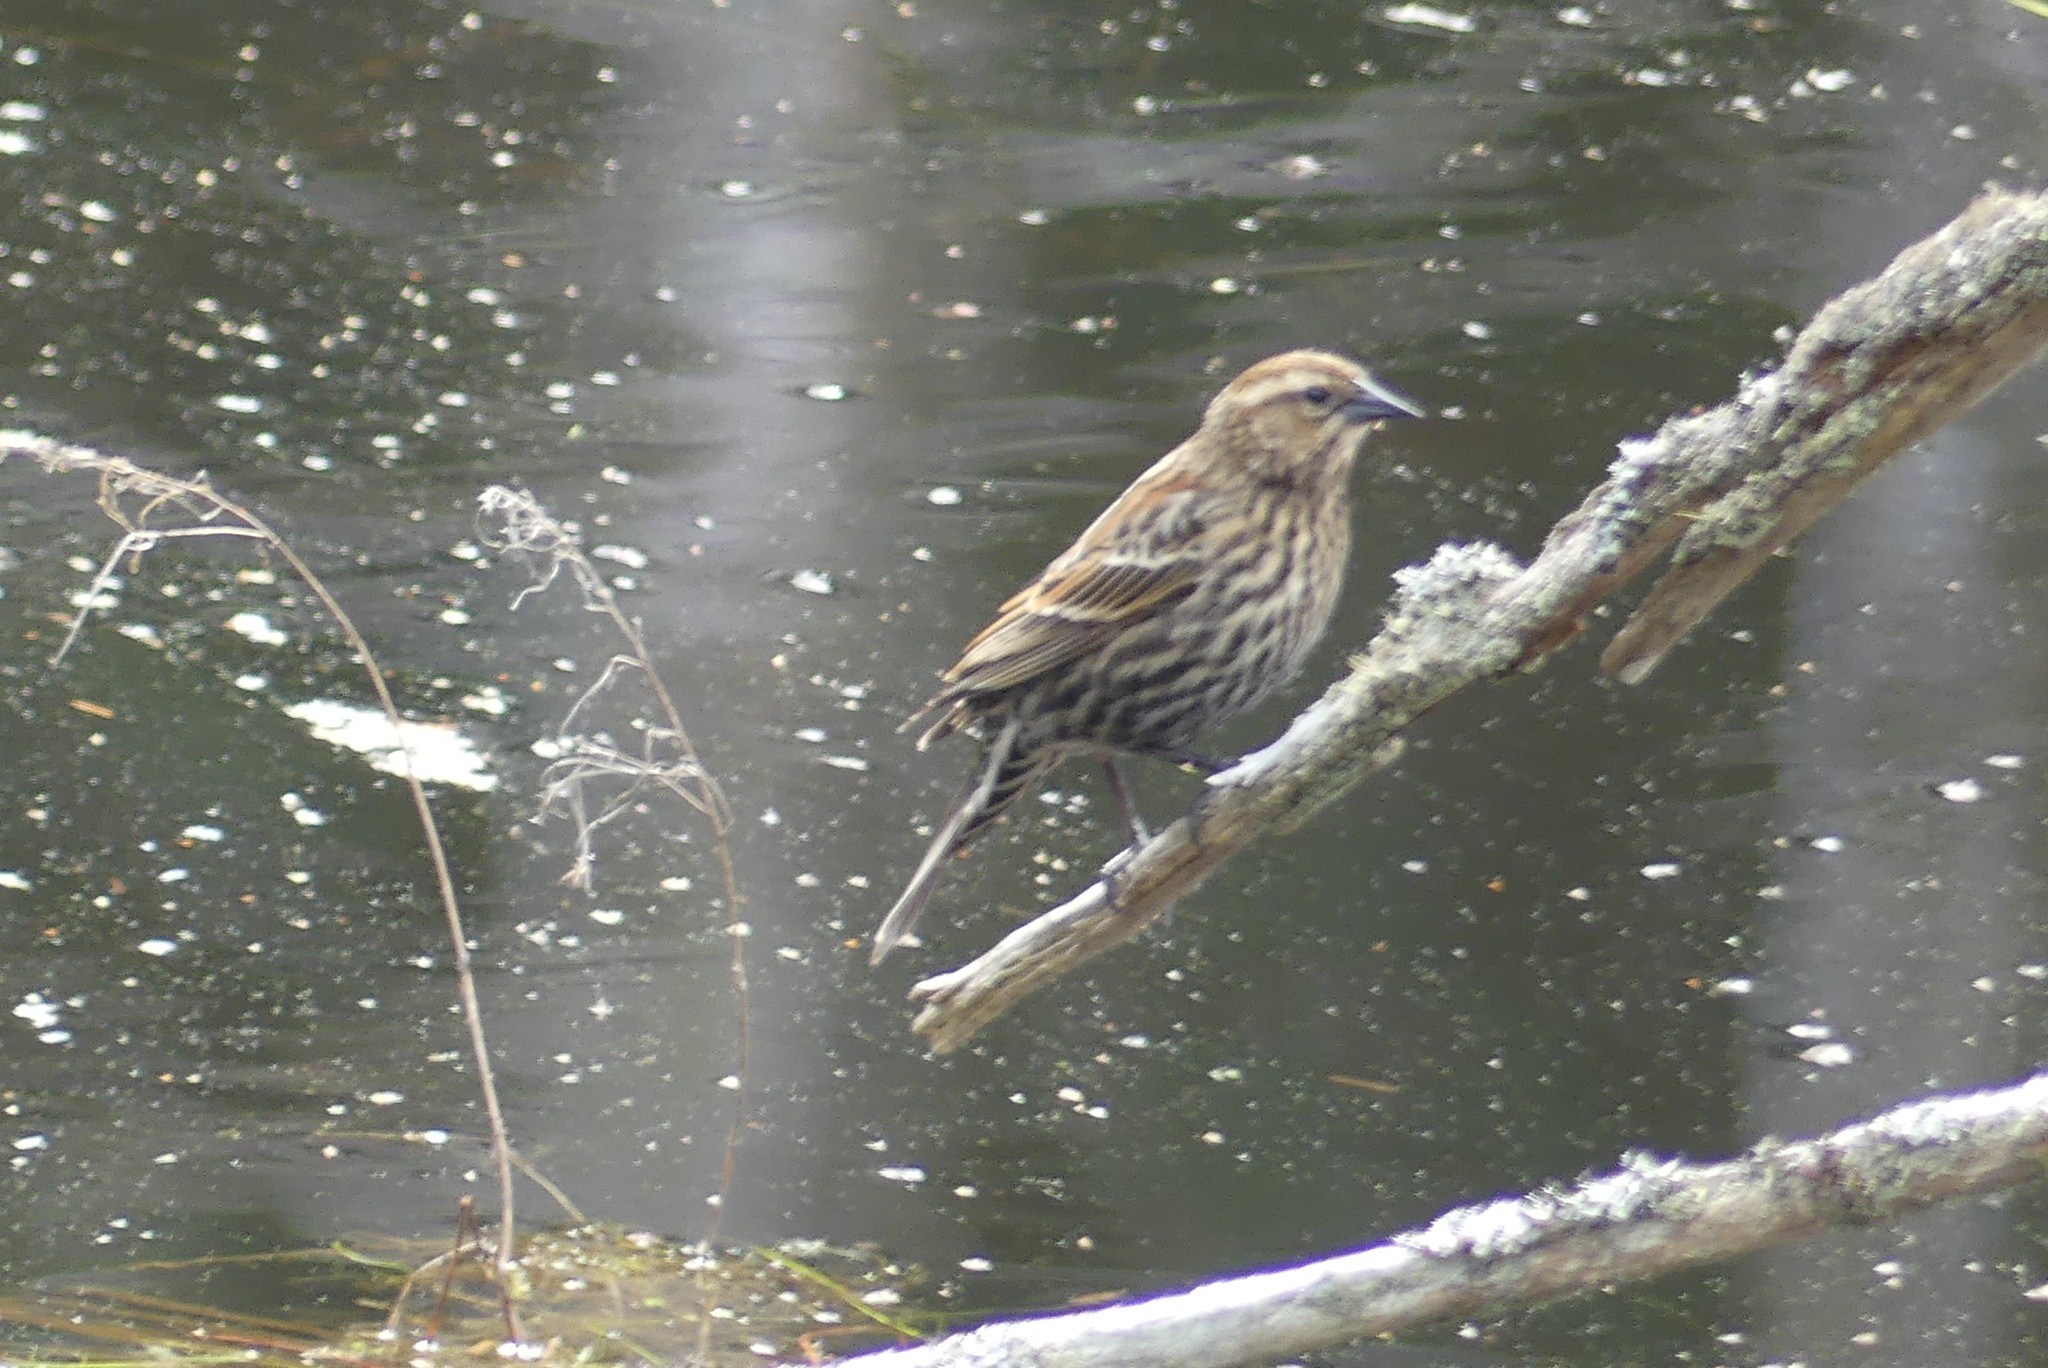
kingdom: Animalia
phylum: Chordata
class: Aves
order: Passeriformes
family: Icteridae
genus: Agelaius
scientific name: Agelaius phoeniceus
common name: Red-winged blackbird
